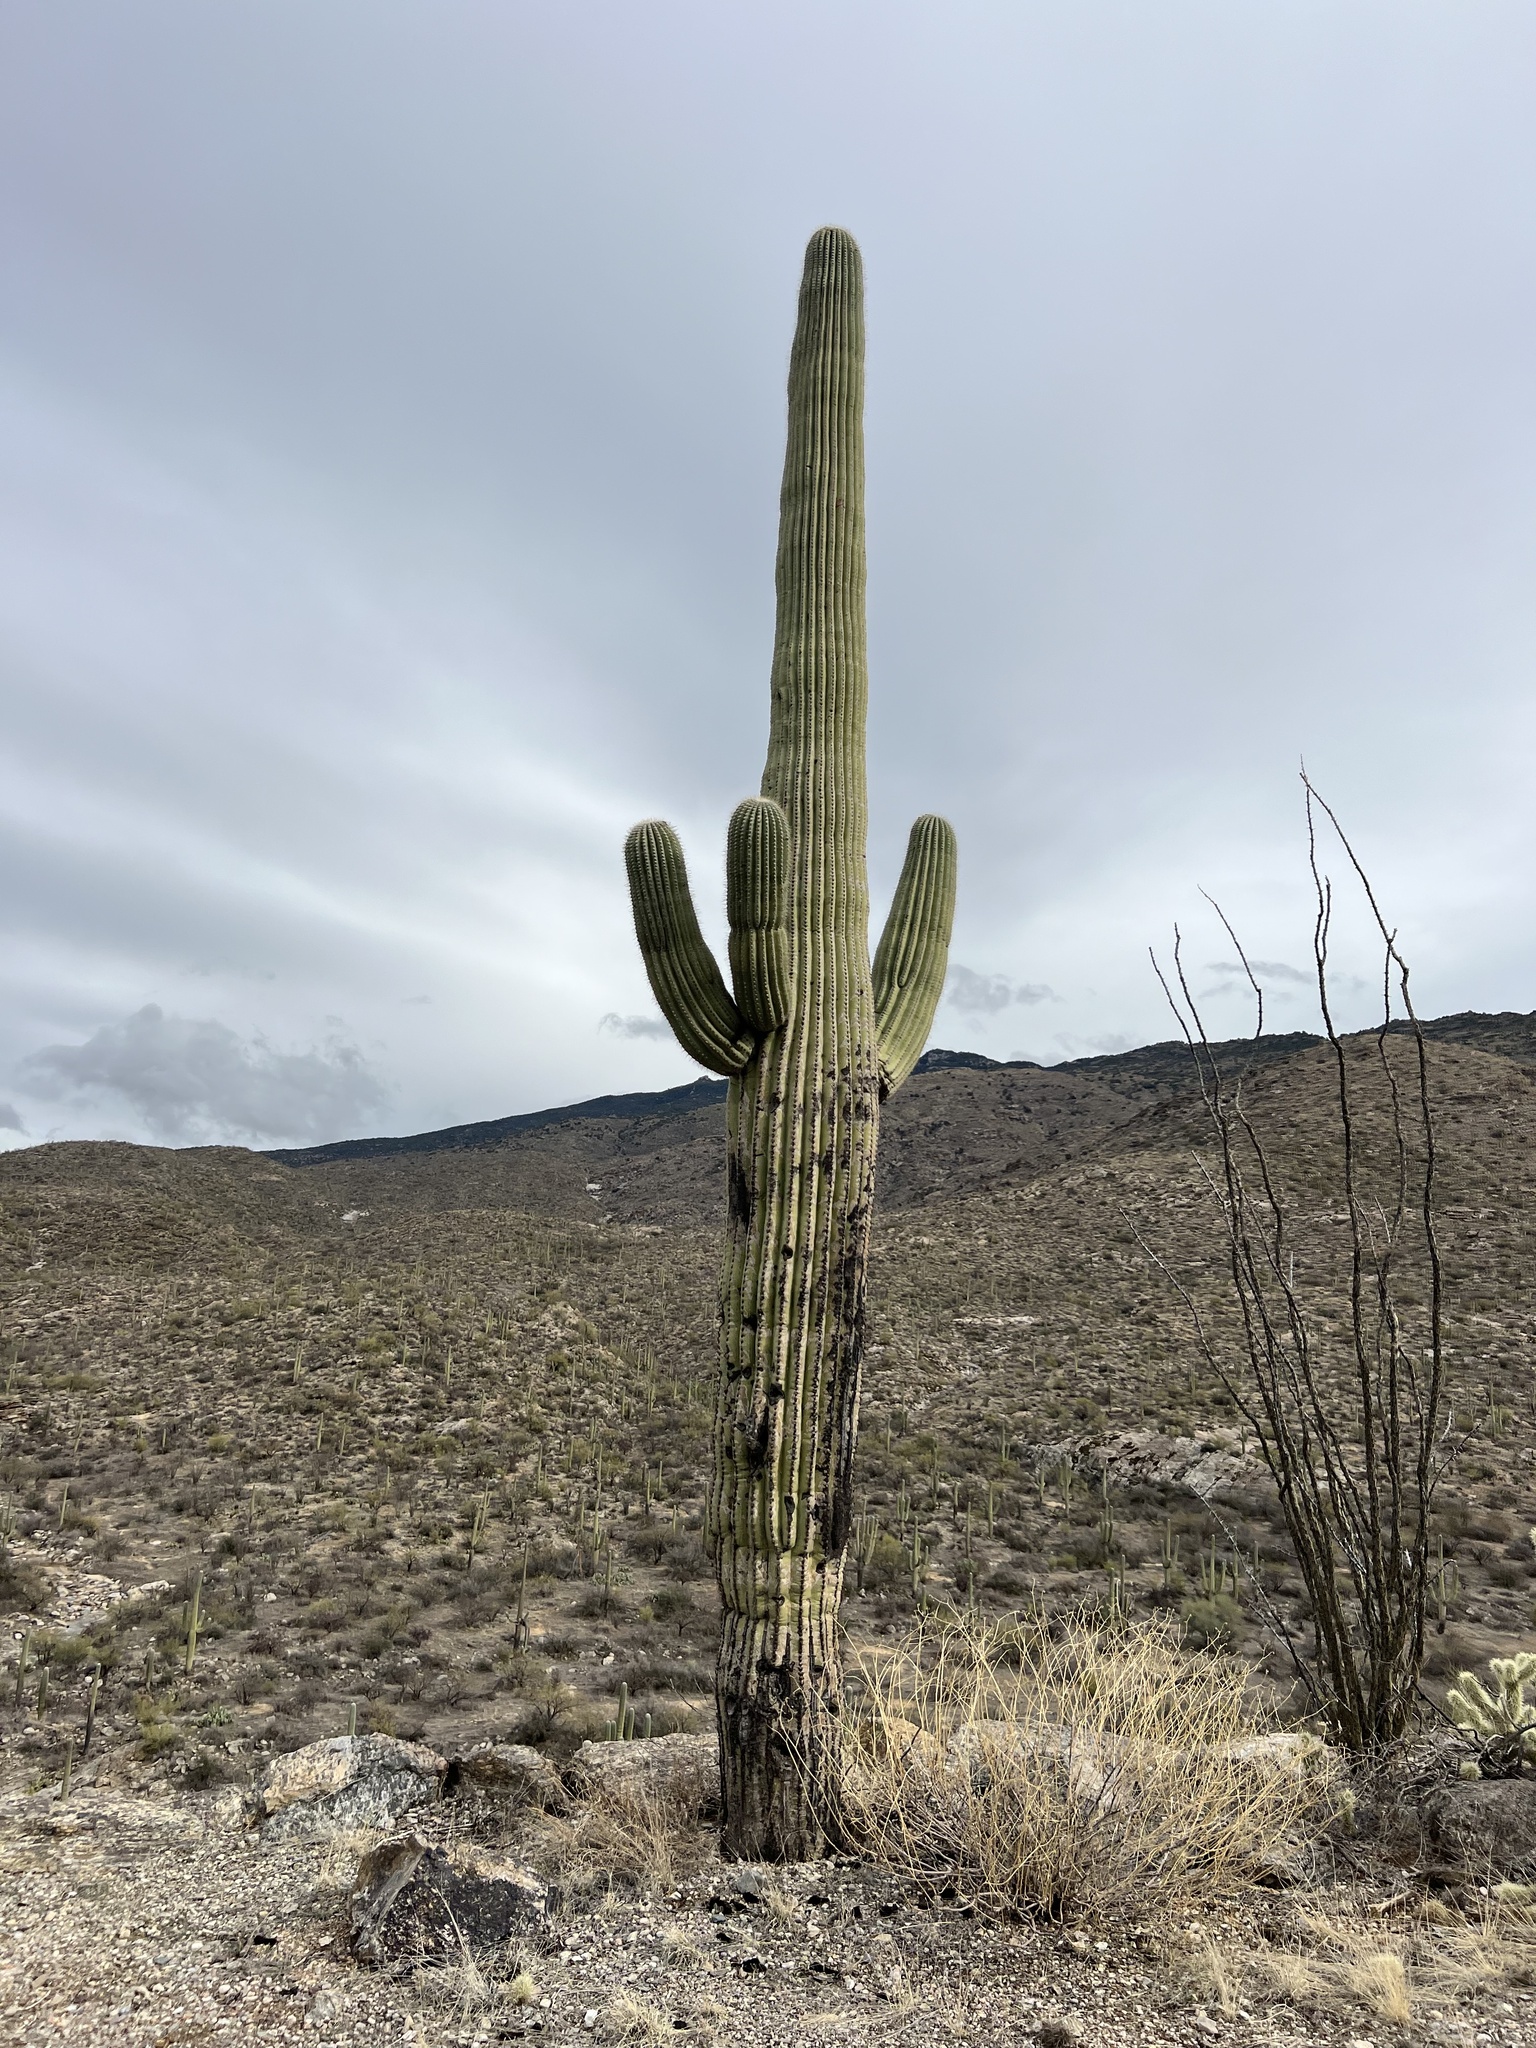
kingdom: Plantae
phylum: Tracheophyta
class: Magnoliopsida
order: Caryophyllales
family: Cactaceae
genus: Carnegiea
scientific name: Carnegiea gigantea
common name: Saguaro
